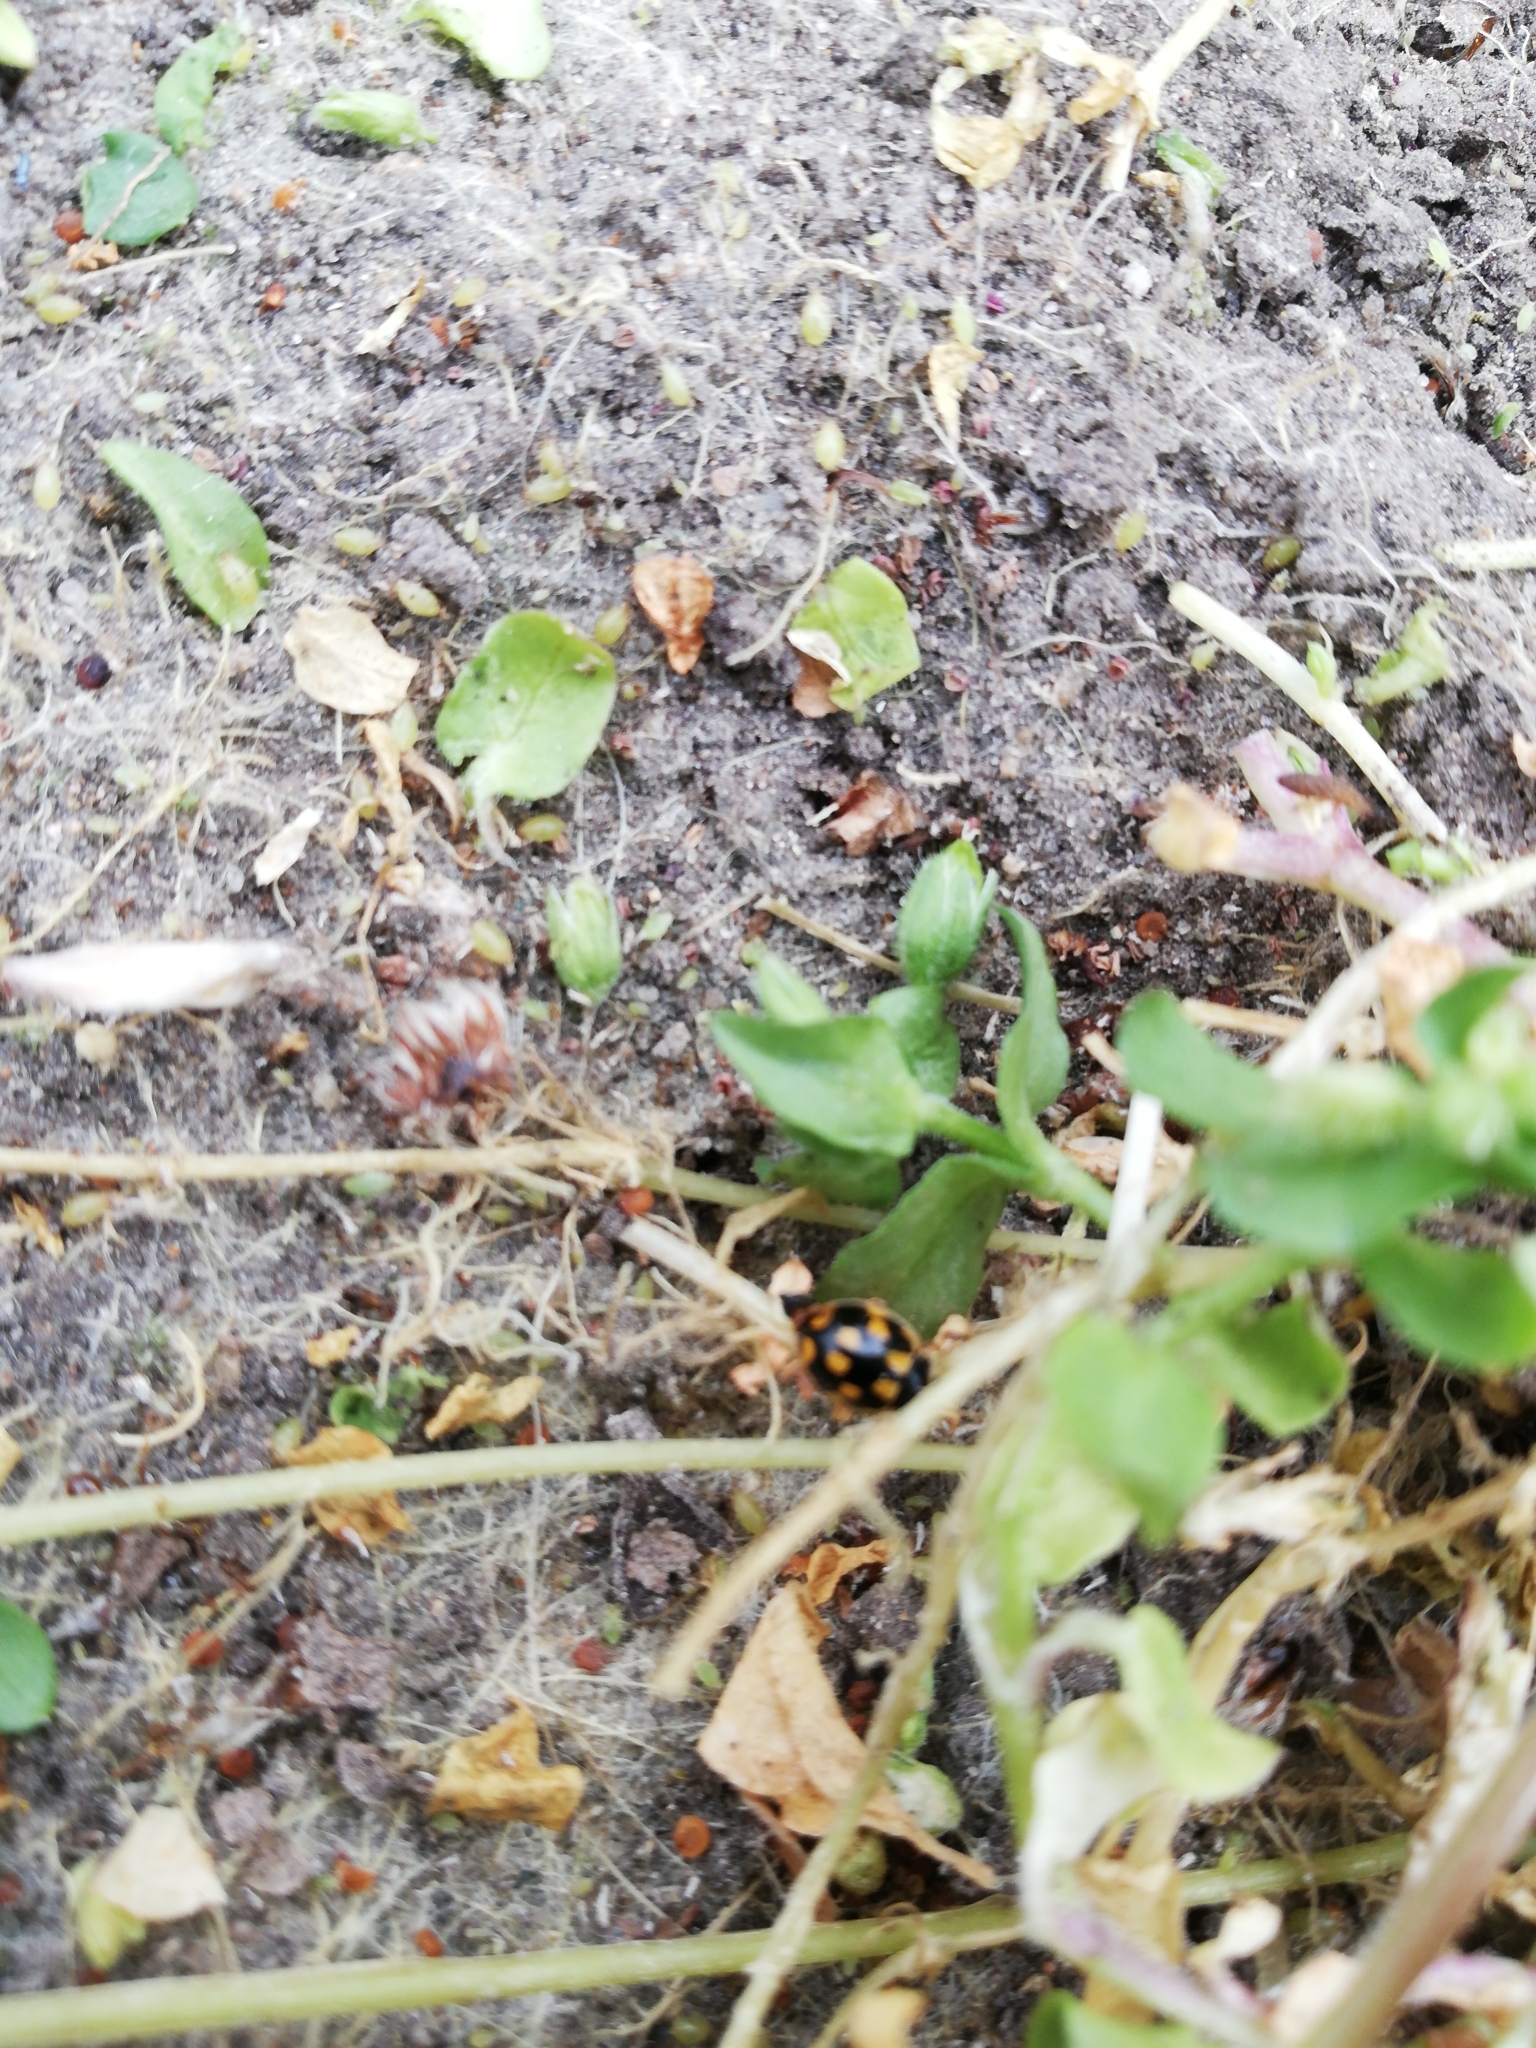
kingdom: Animalia
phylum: Arthropoda
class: Insecta
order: Coleoptera
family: Coccinellidae
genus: Propylaea
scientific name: Propylaea quatuordecimpunctata
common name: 14-spotted ladybird beetle
